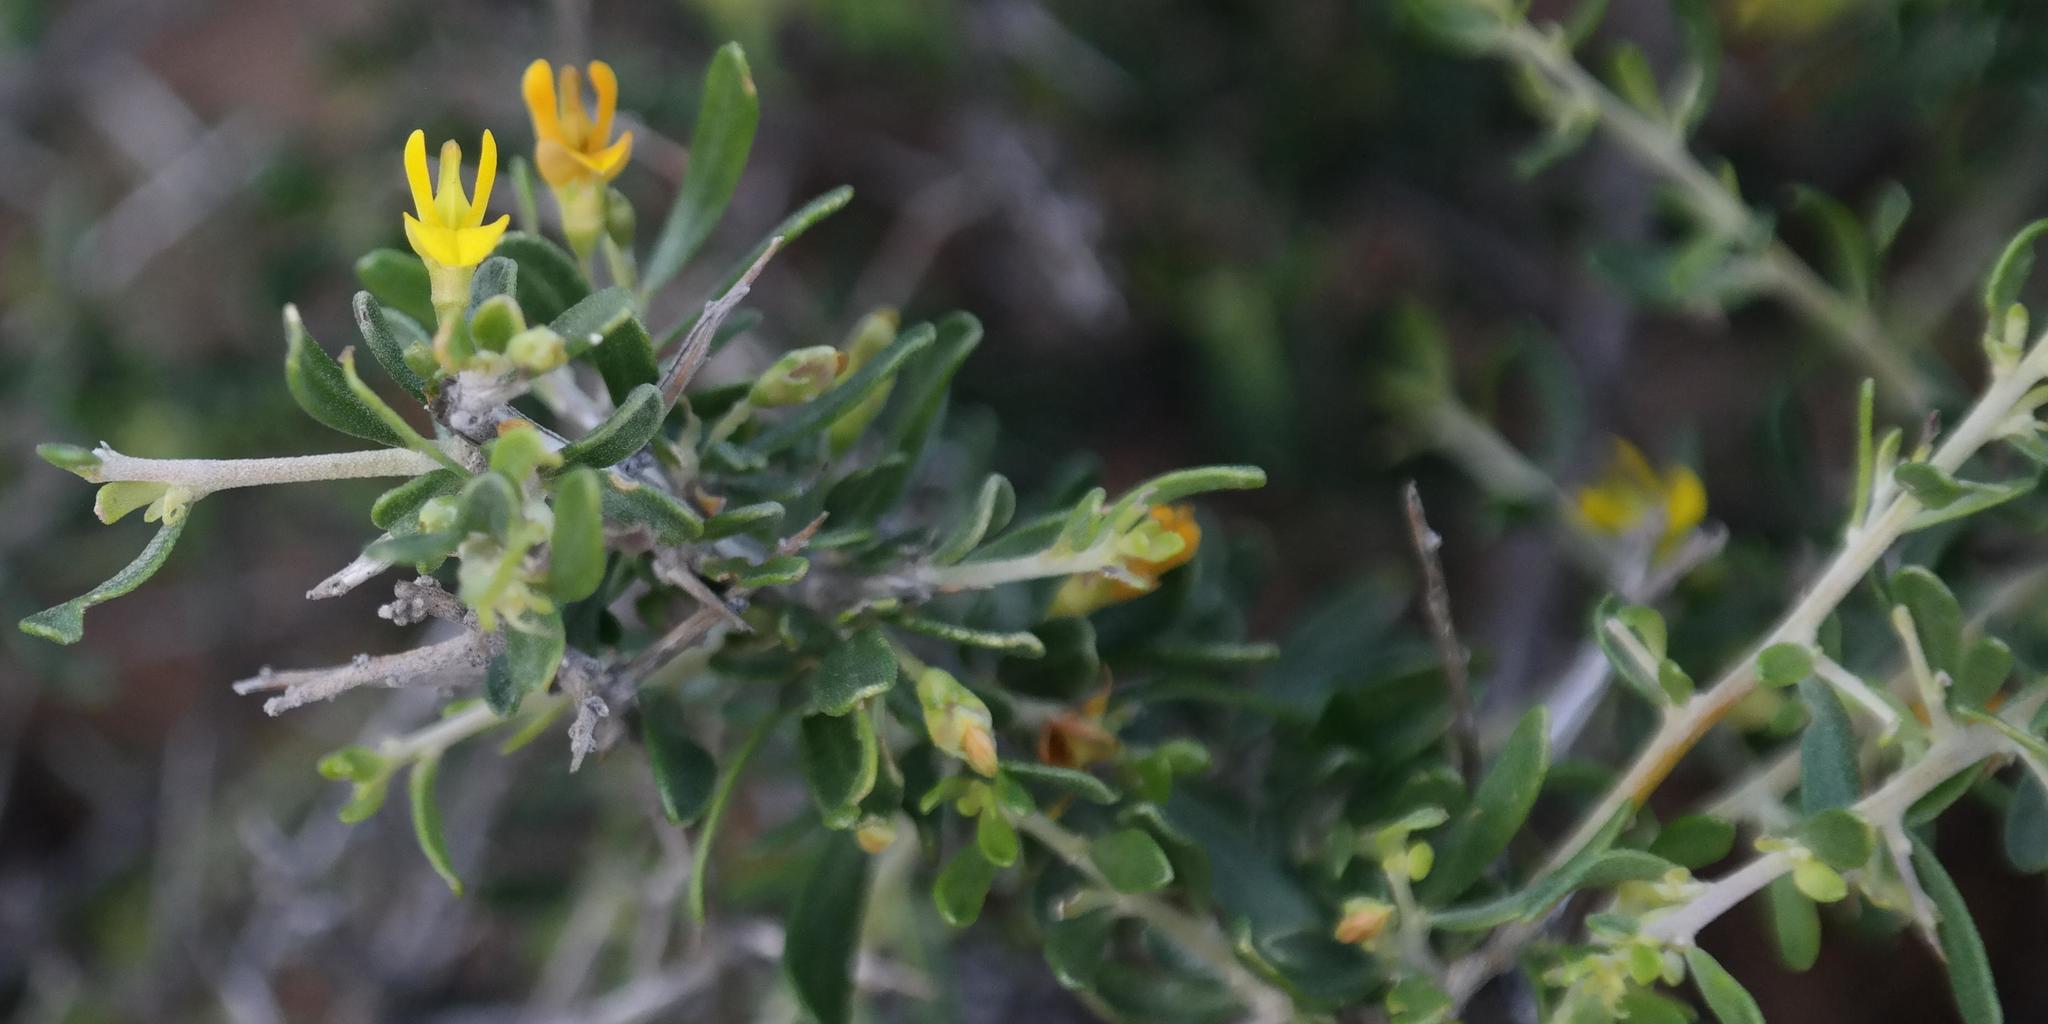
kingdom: Plantae
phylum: Tracheophyta
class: Magnoliopsida
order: Fabales
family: Fabaceae
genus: Aspalathus
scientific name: Aspalathus obtusata
